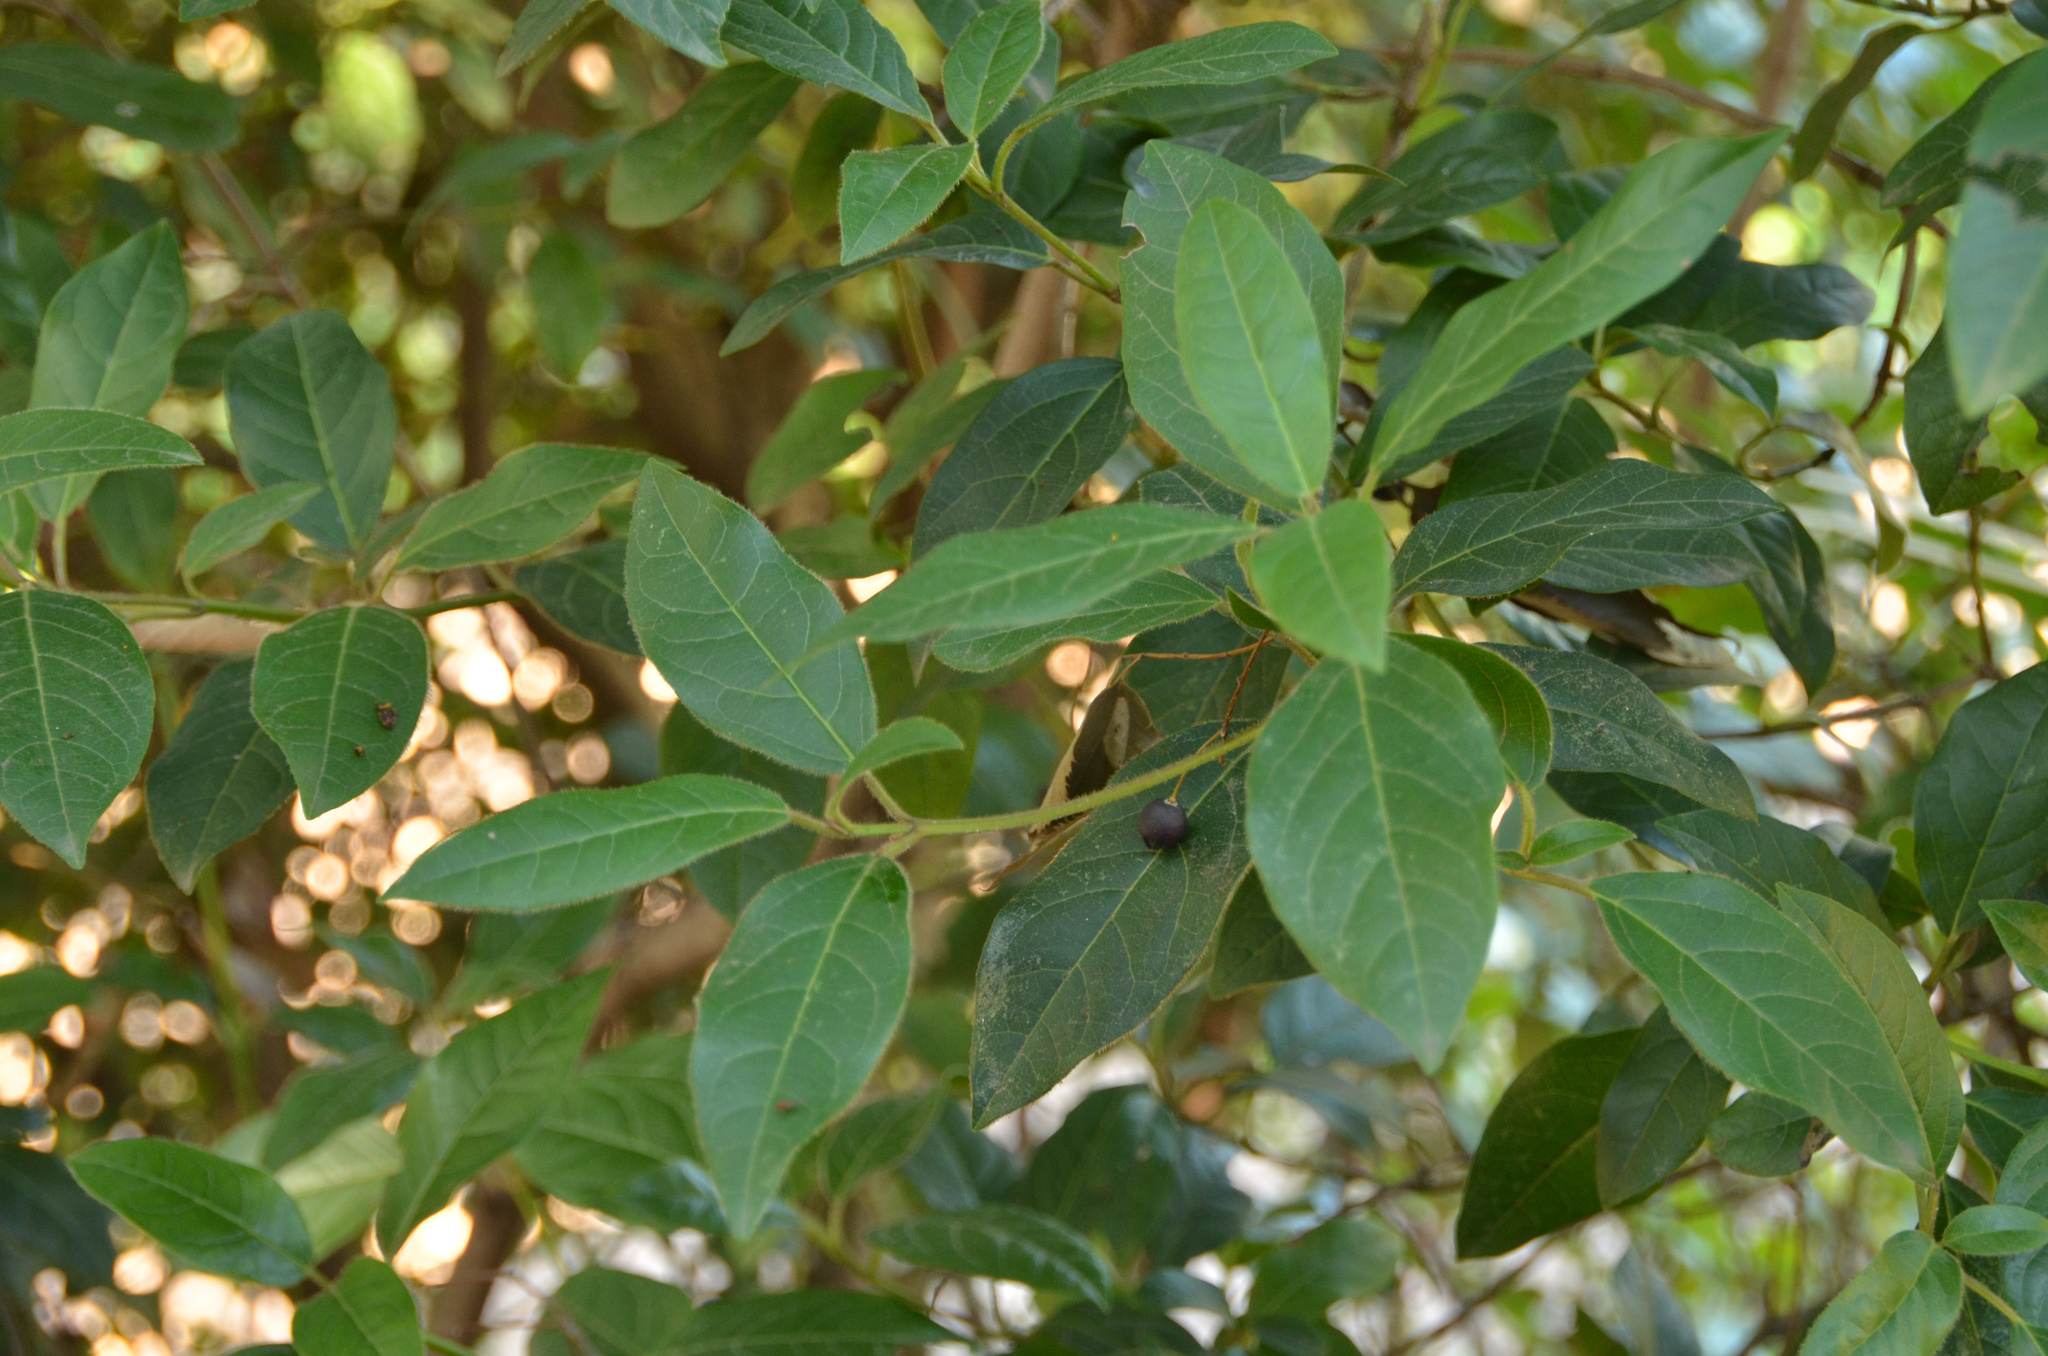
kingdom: Plantae
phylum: Tracheophyta
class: Magnoliopsida
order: Dipsacales
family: Viburnaceae
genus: Viburnum
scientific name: Viburnum tinus
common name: Laurustinus
